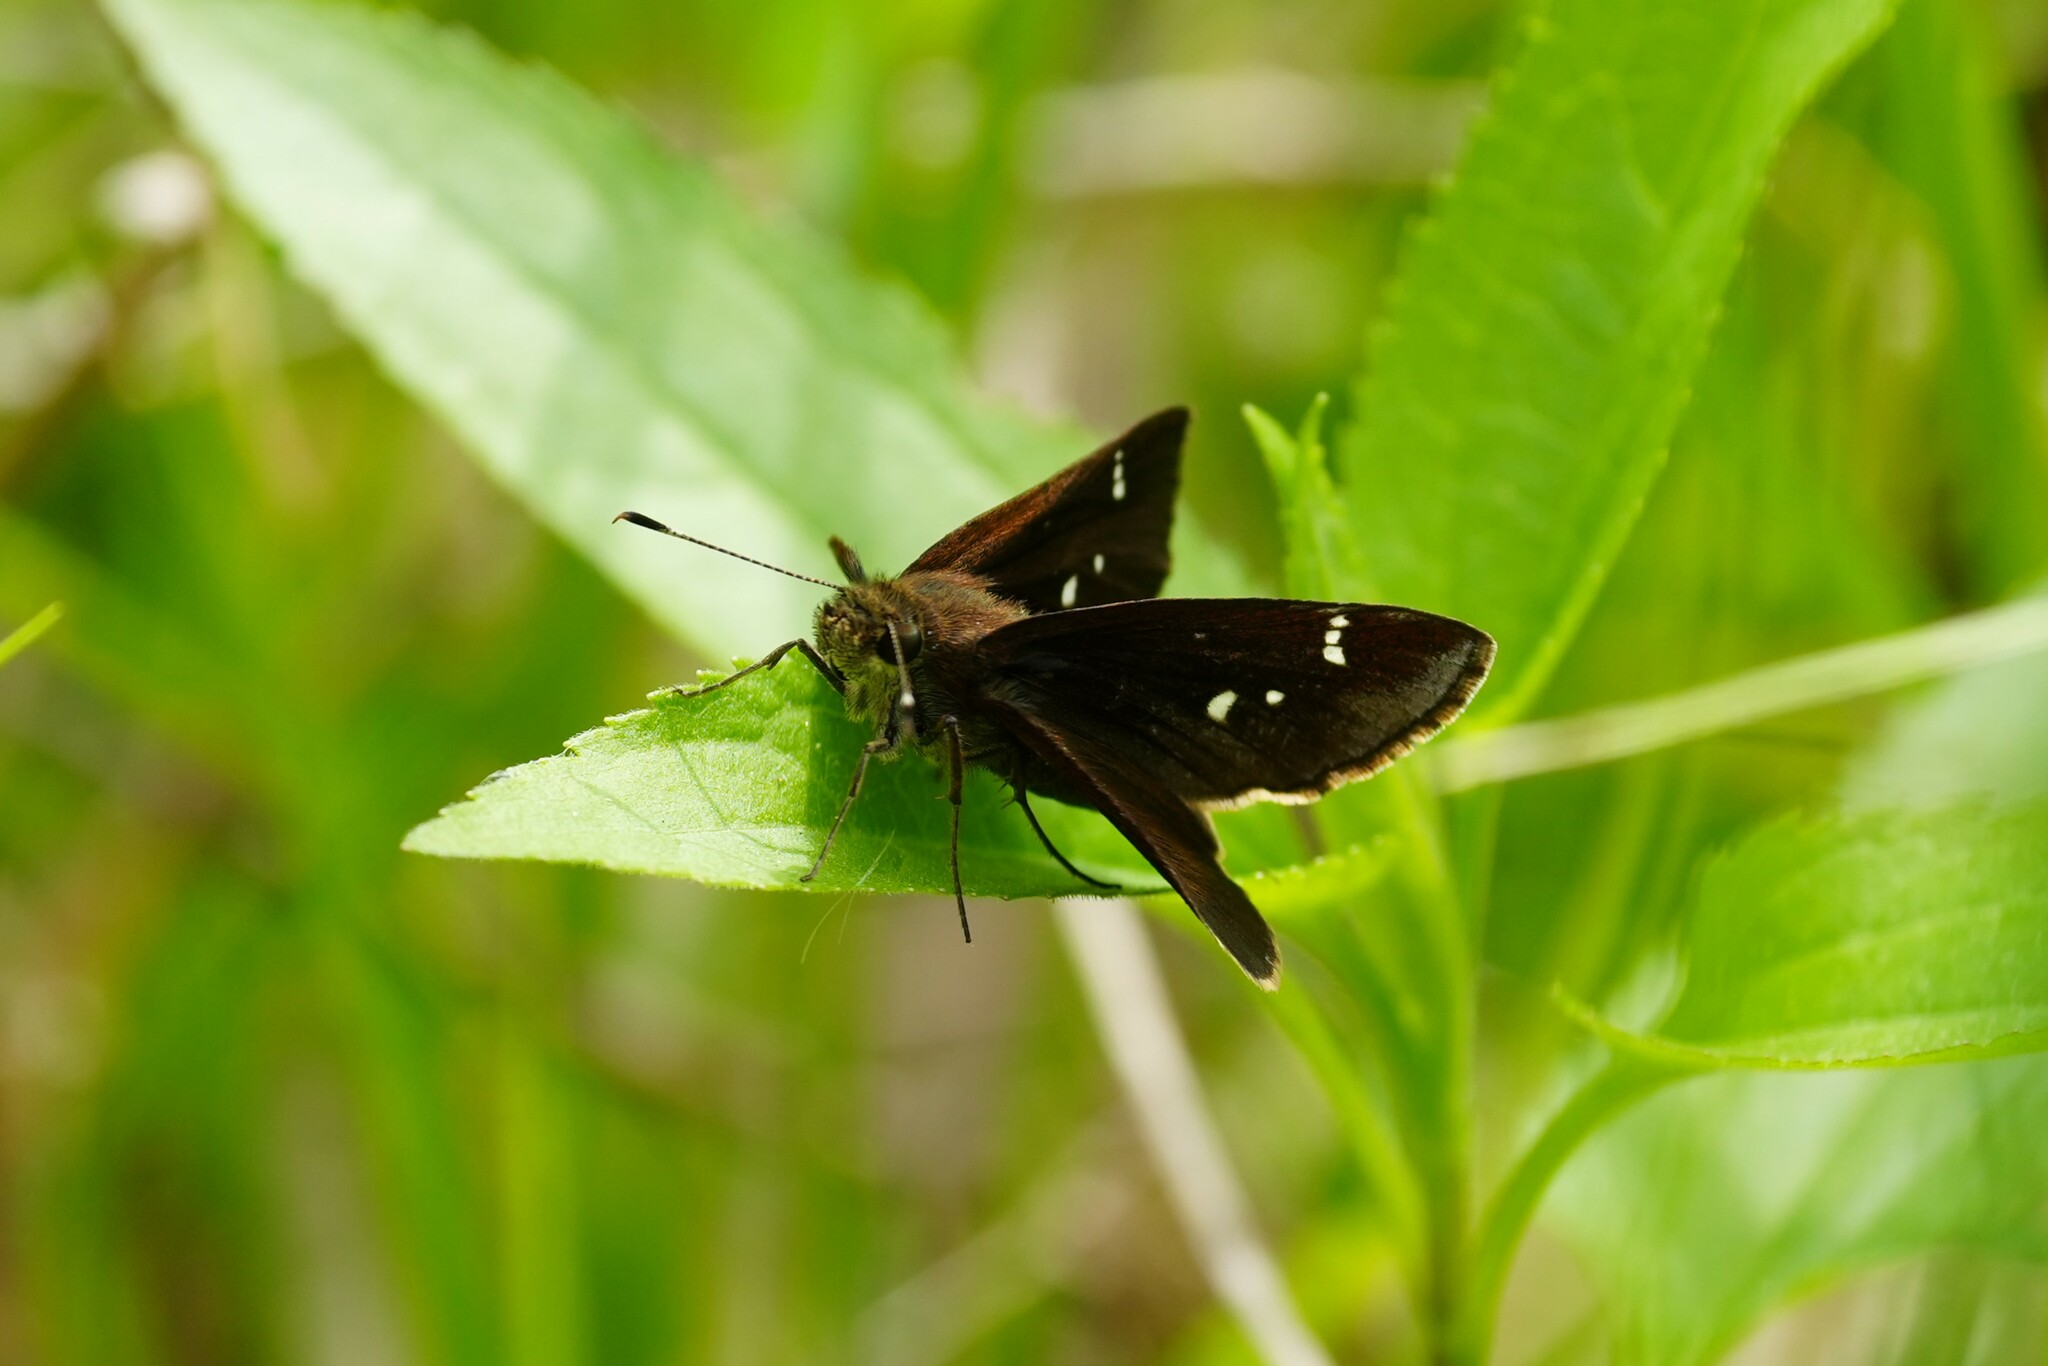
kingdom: Animalia
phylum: Arthropoda
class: Insecta
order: Lepidoptera
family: Hesperiidae
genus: Lerema
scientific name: Lerema accius
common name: Clouded skipper
